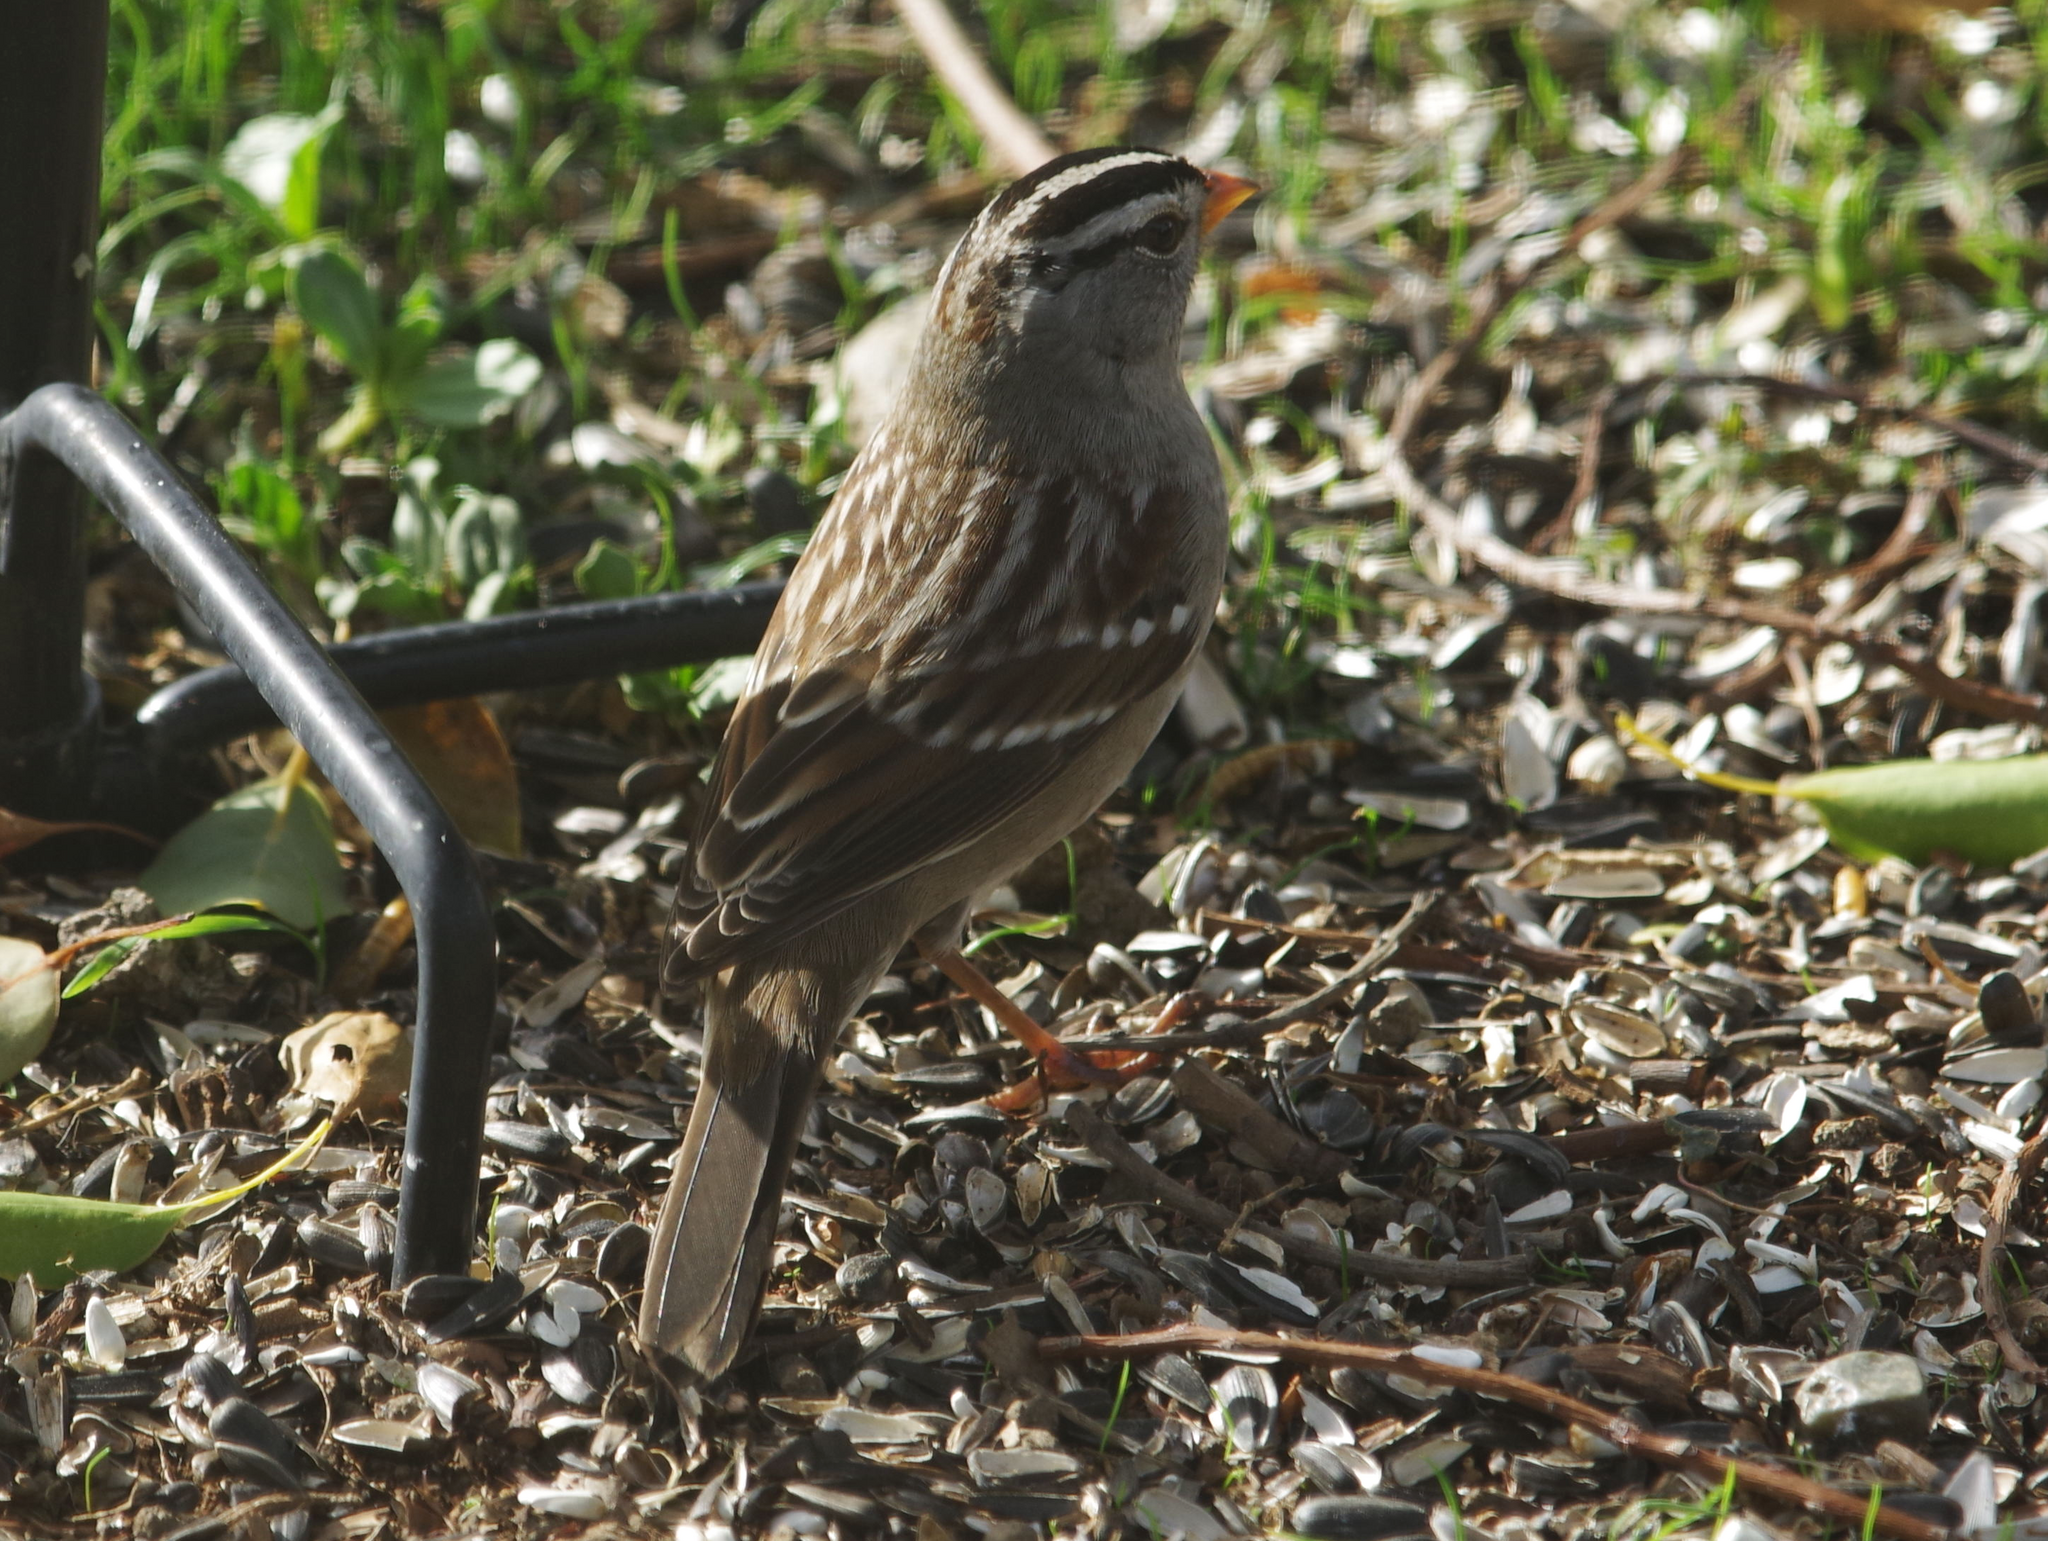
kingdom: Animalia
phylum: Chordata
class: Aves
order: Passeriformes
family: Passerellidae
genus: Zonotrichia
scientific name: Zonotrichia leucophrys
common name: White-crowned sparrow
